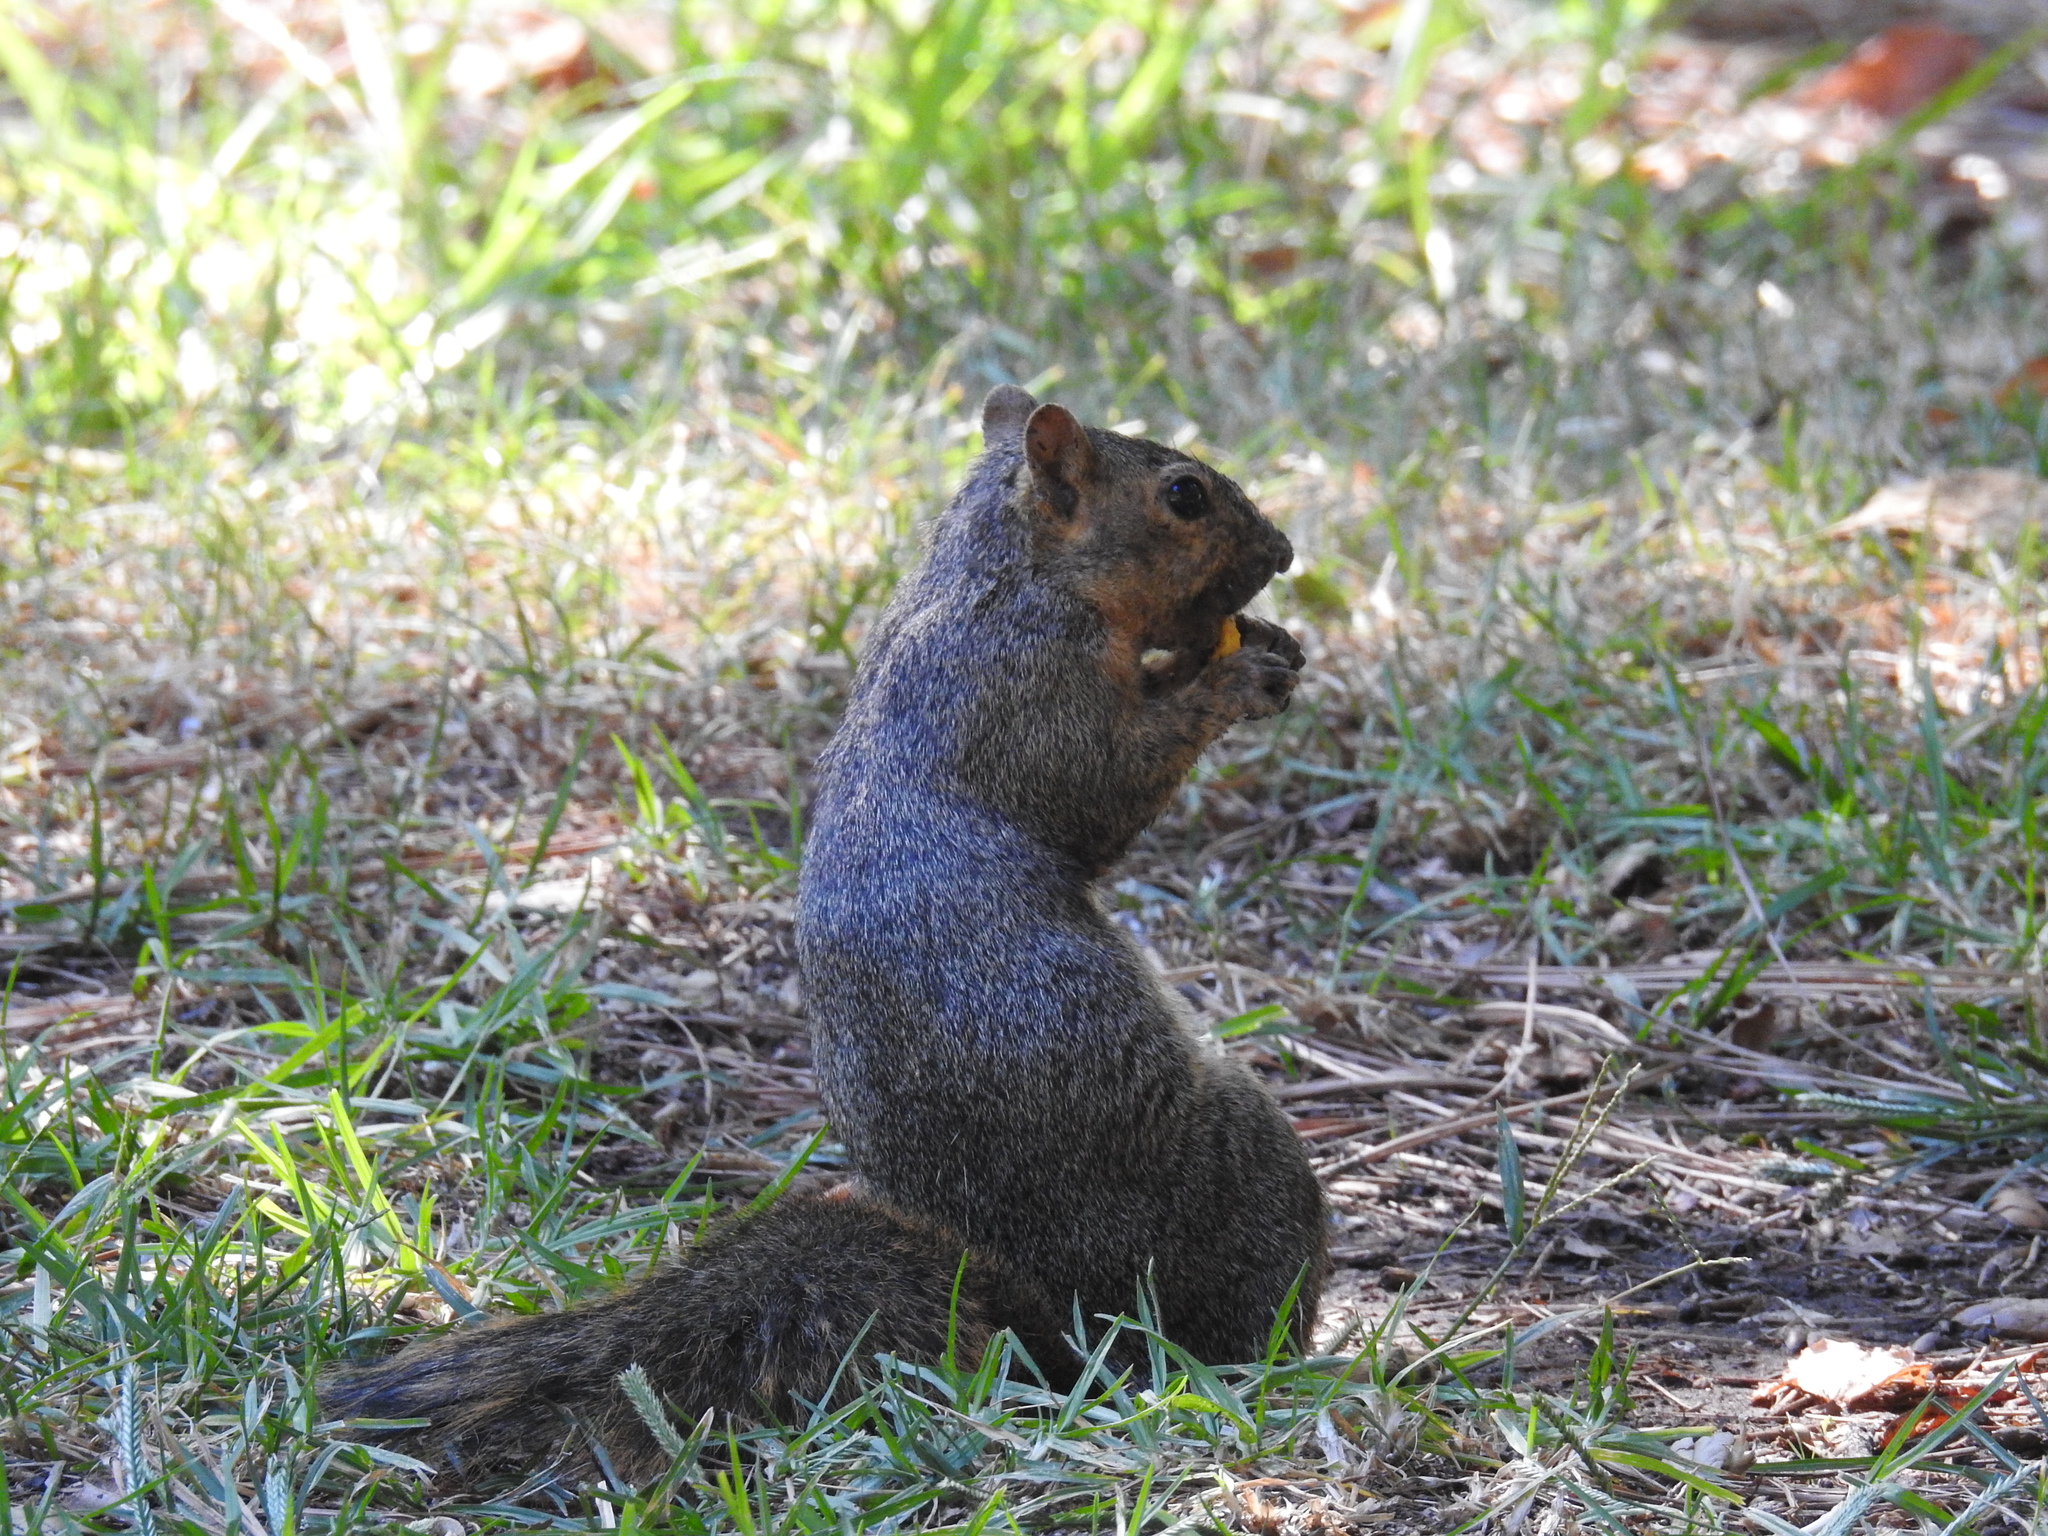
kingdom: Animalia
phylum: Chordata
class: Mammalia
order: Rodentia
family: Sciuridae
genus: Sciurus
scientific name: Sciurus niger
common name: Fox squirrel
